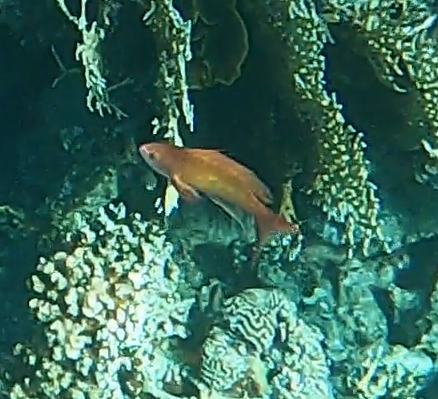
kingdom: Animalia
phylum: Chordata
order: Perciformes
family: Serranidae
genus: Pseudanthias
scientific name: Pseudanthias squamipinnis
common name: Scalefin anthias
